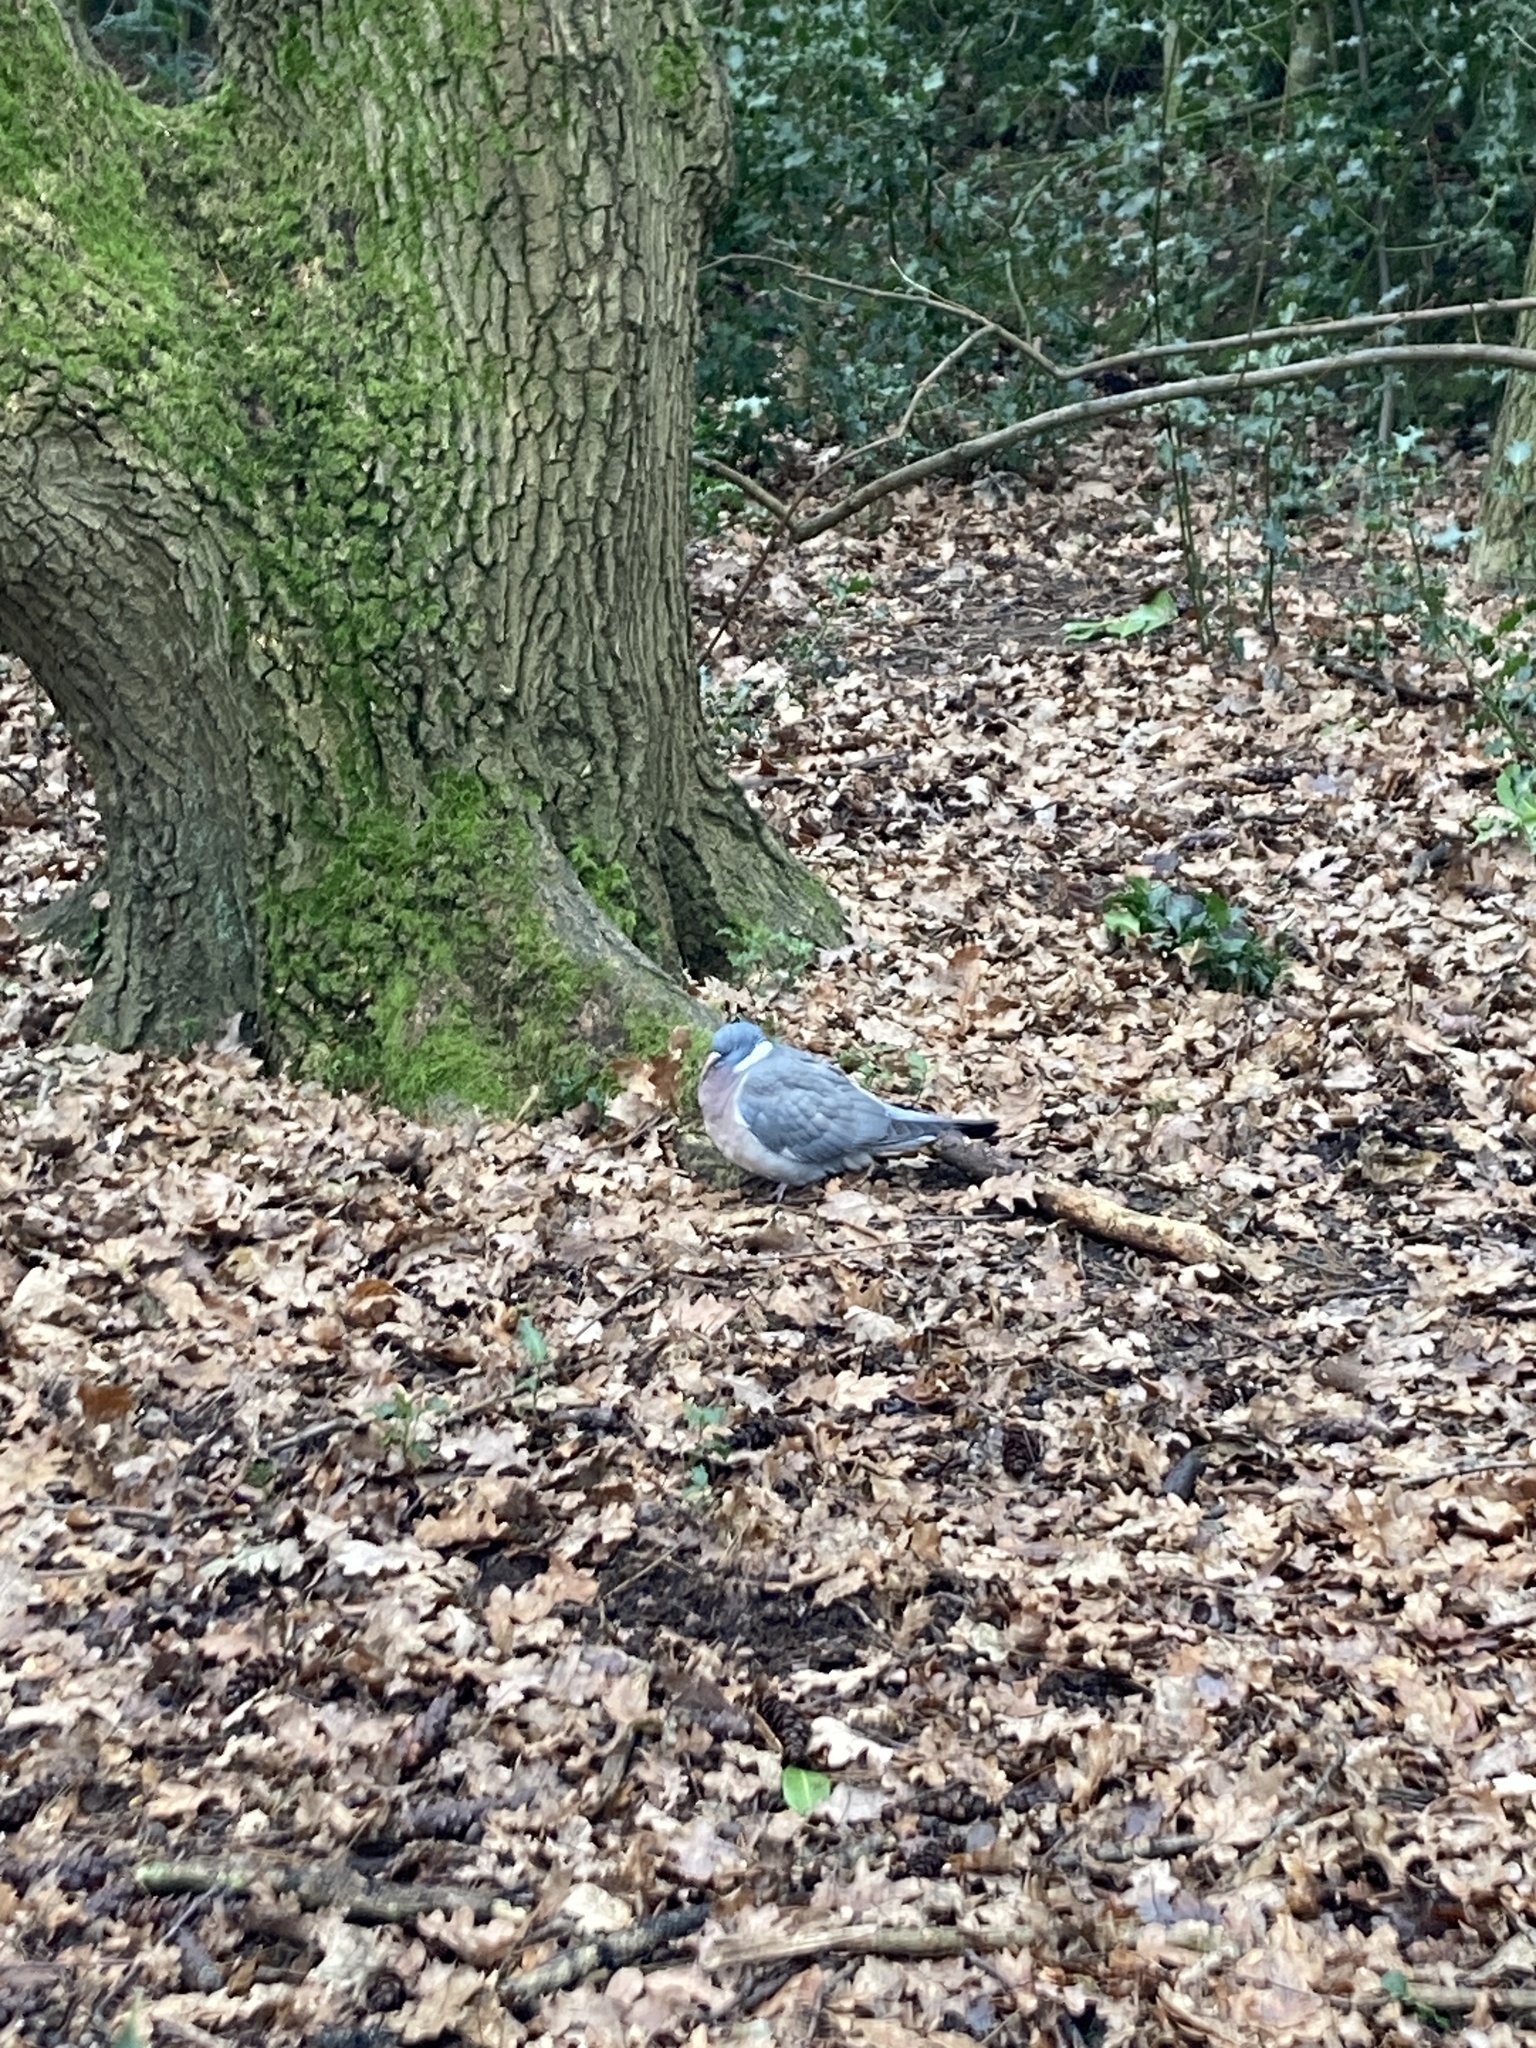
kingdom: Animalia
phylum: Chordata
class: Aves
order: Columbiformes
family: Columbidae
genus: Columba
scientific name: Columba palumbus
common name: Common wood pigeon
